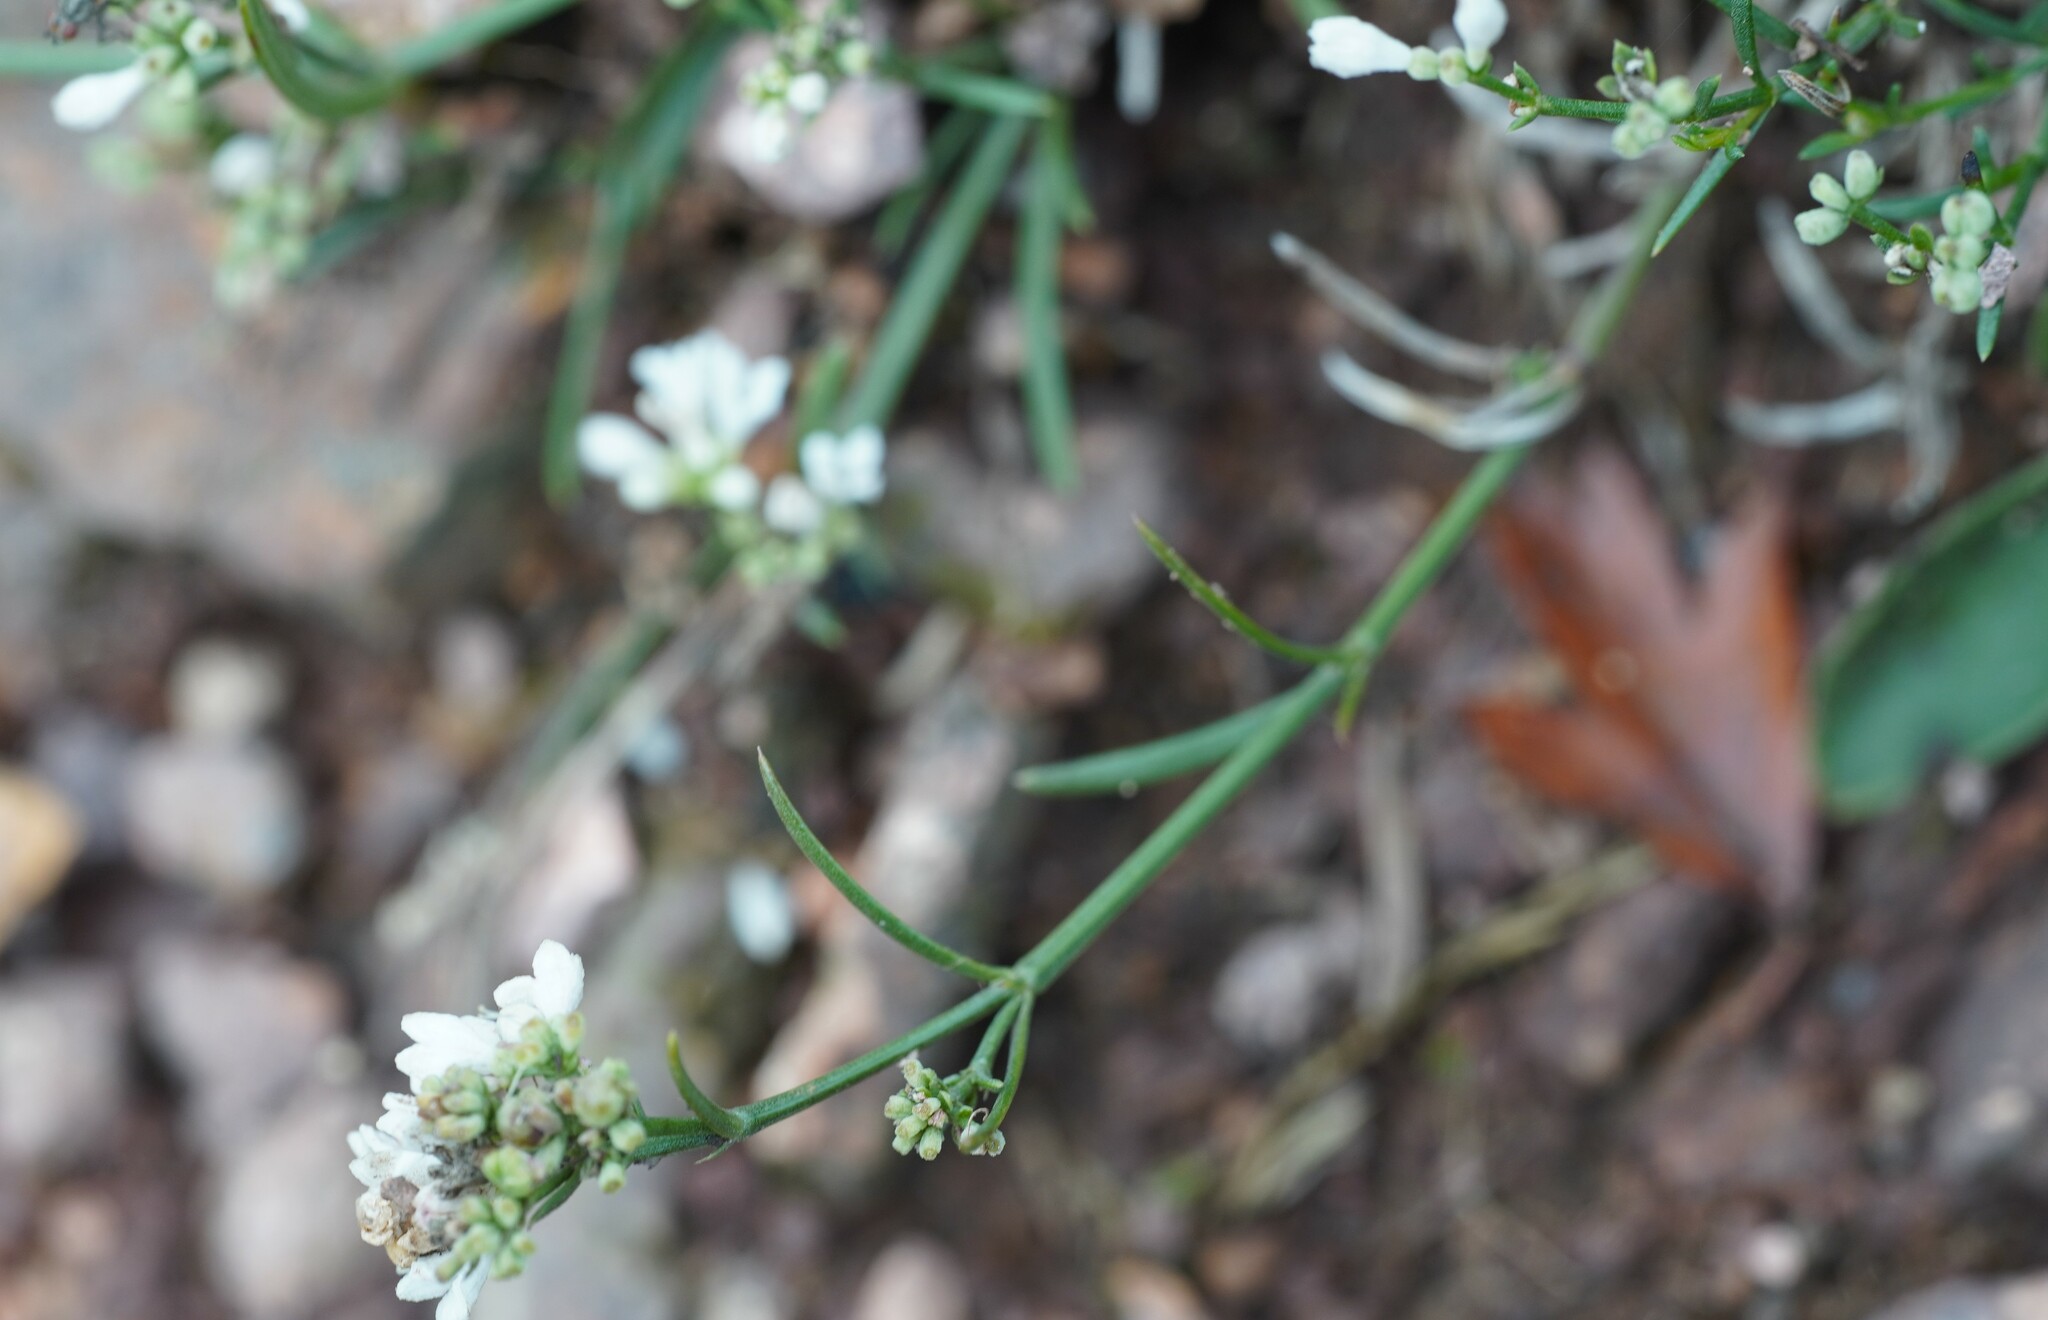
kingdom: Plantae
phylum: Tracheophyta
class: Magnoliopsida
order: Gentianales
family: Rubiaceae
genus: Cynanchica
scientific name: Cynanchica pyrenaica
